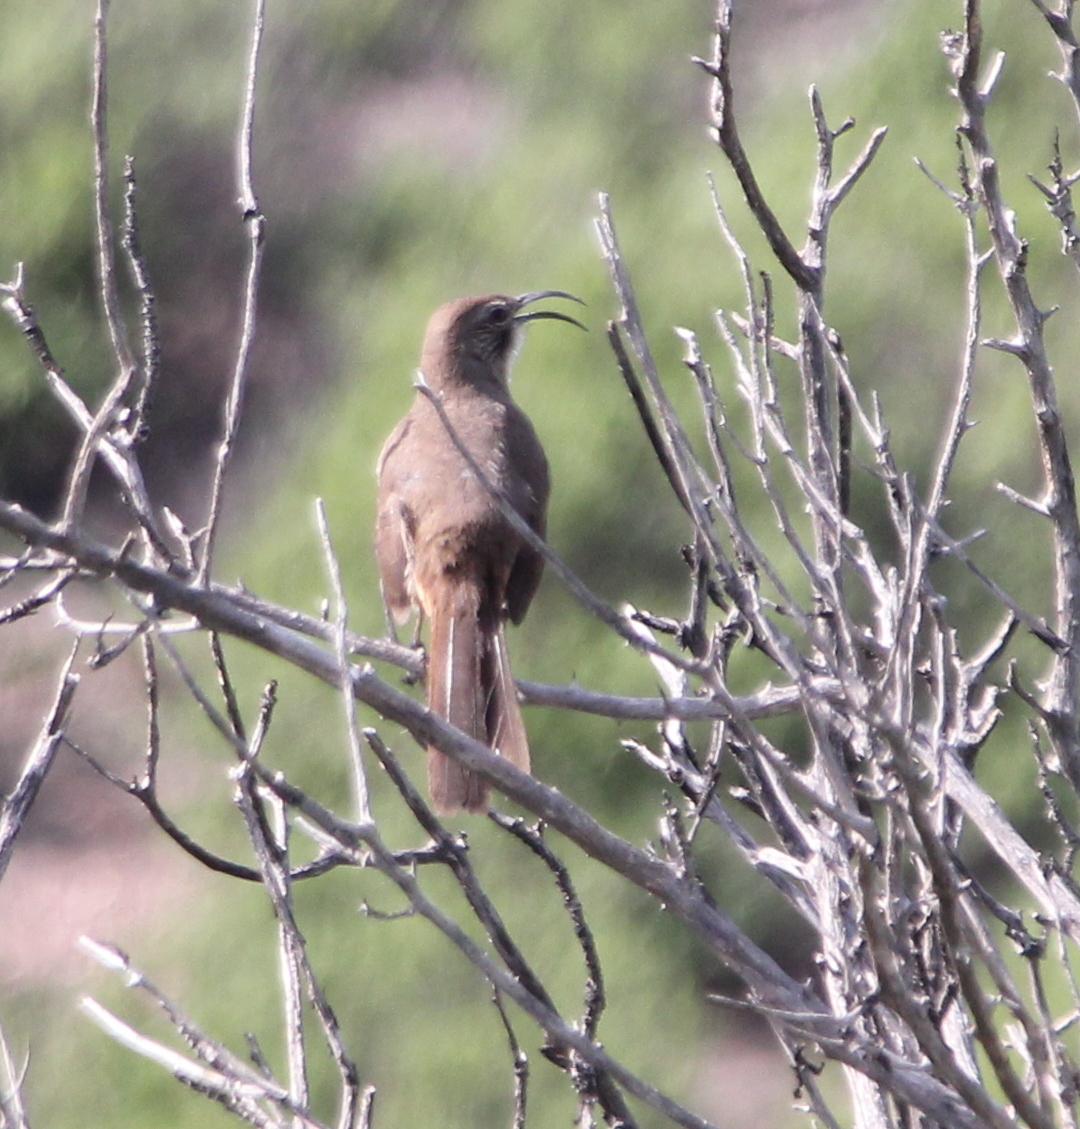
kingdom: Animalia
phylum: Chordata
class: Aves
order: Passeriformes
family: Mimidae
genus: Toxostoma
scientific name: Toxostoma redivivum
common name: California thrasher
